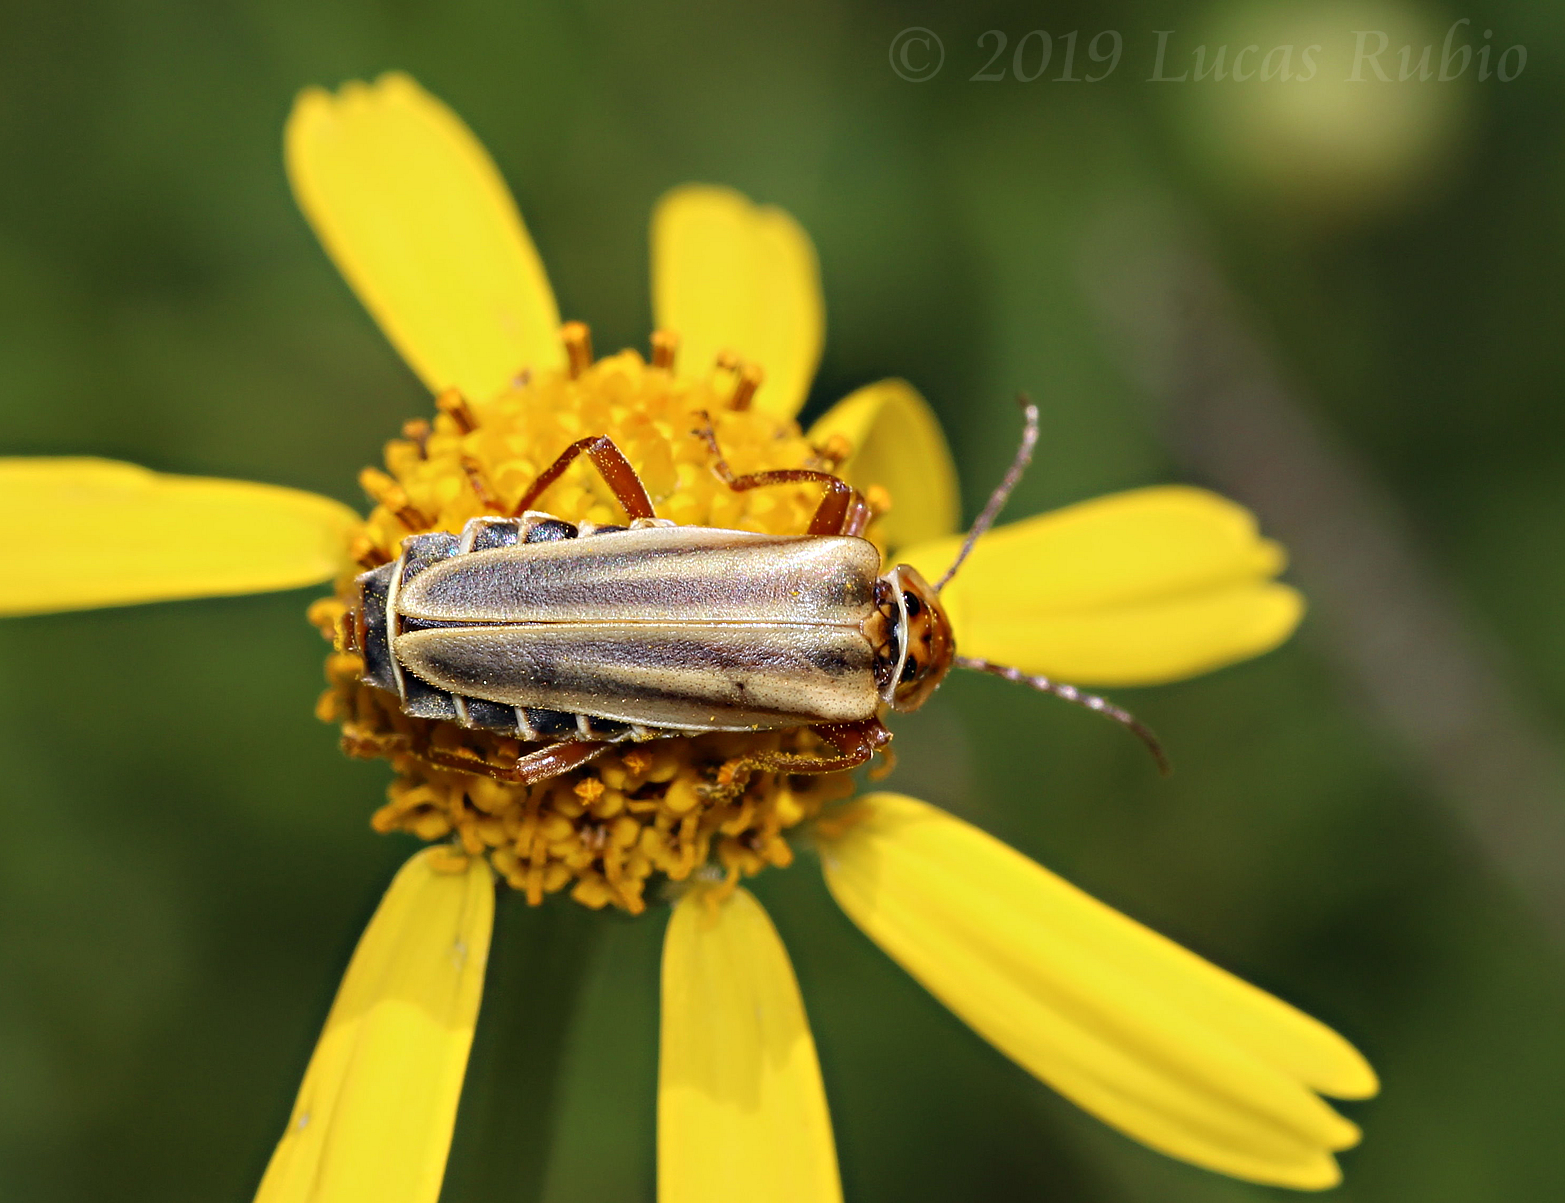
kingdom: Animalia
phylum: Arthropoda
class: Insecta
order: Coleoptera
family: Cantharidae
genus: Chauliognathus
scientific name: Chauliognathus
